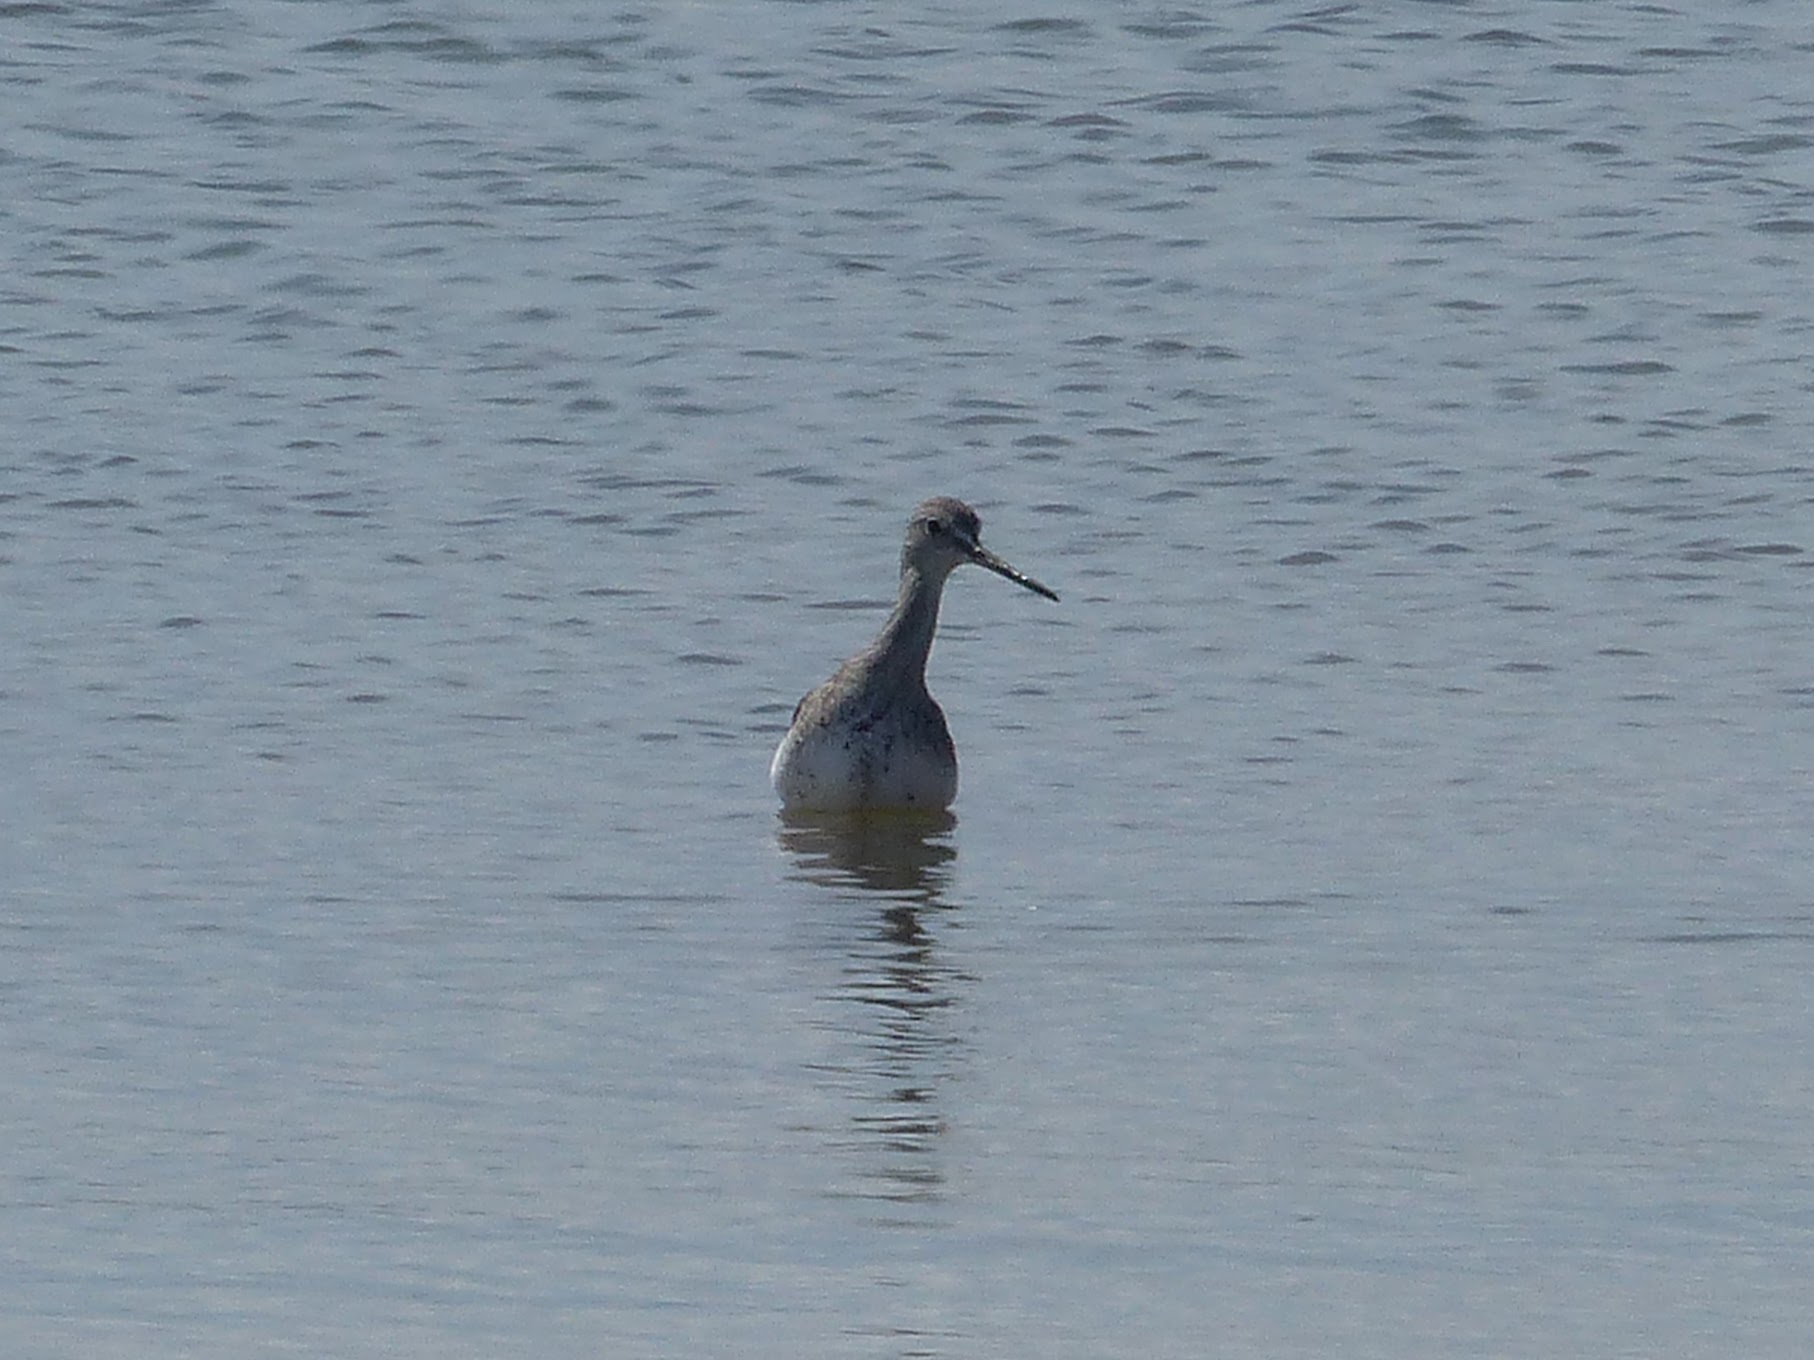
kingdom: Animalia
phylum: Chordata
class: Aves
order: Charadriiformes
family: Scolopacidae
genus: Tringa
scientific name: Tringa melanoleuca
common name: Greater yellowlegs
